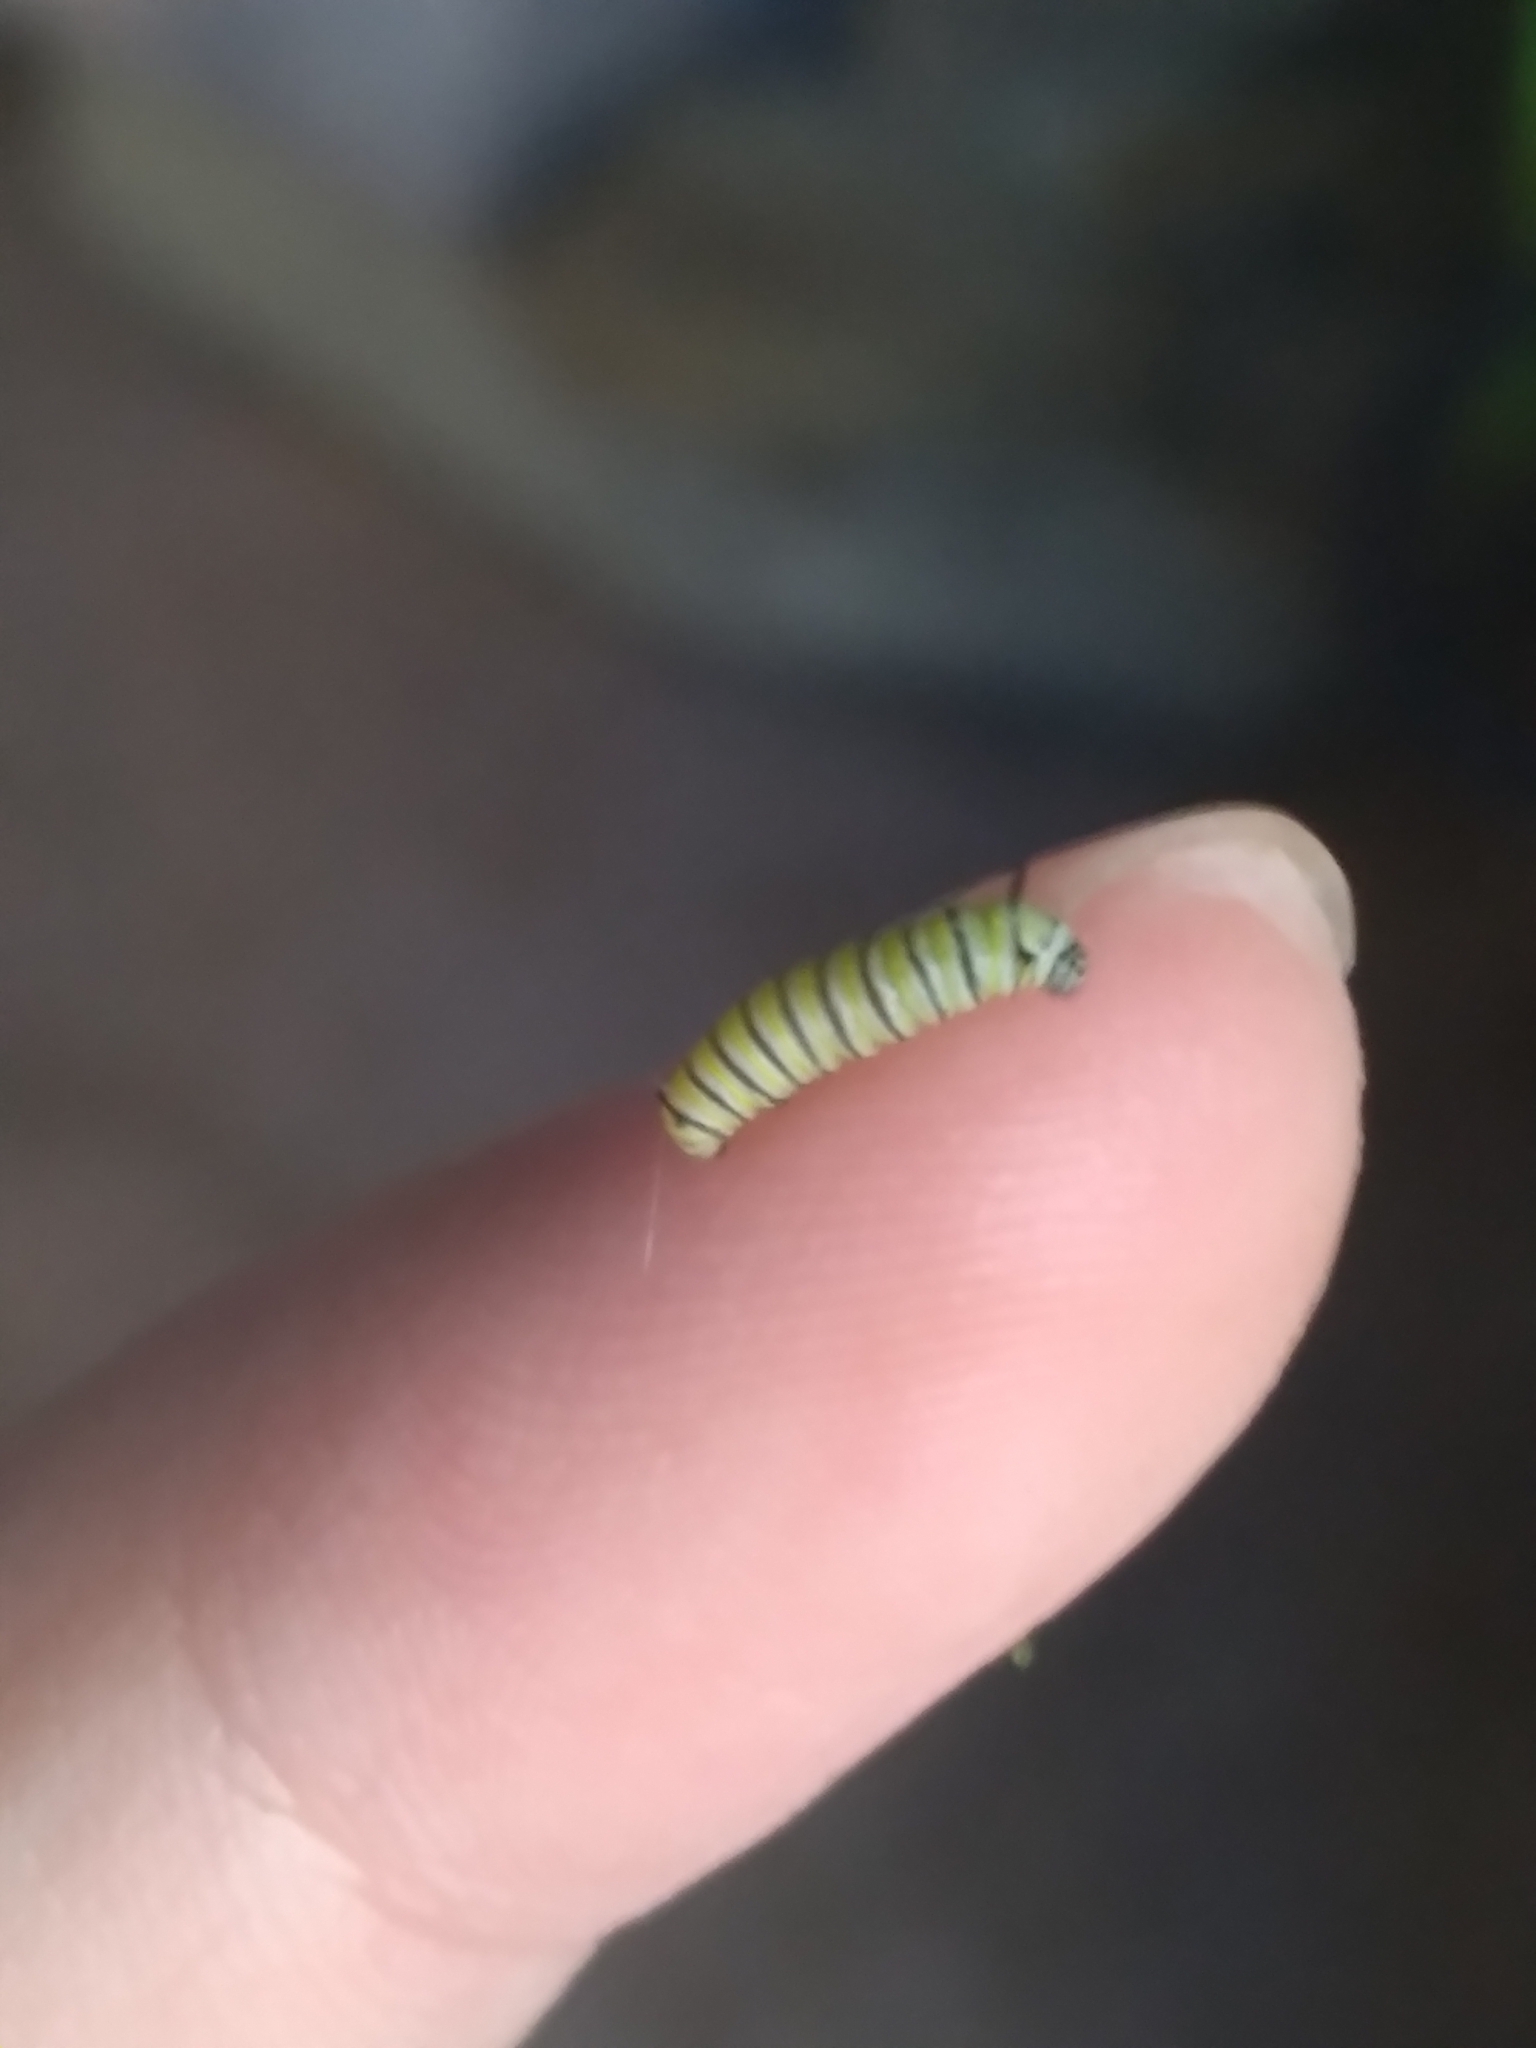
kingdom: Animalia
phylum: Arthropoda
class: Insecta
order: Lepidoptera
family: Nymphalidae
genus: Danaus
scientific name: Danaus plexippus
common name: Monarch
